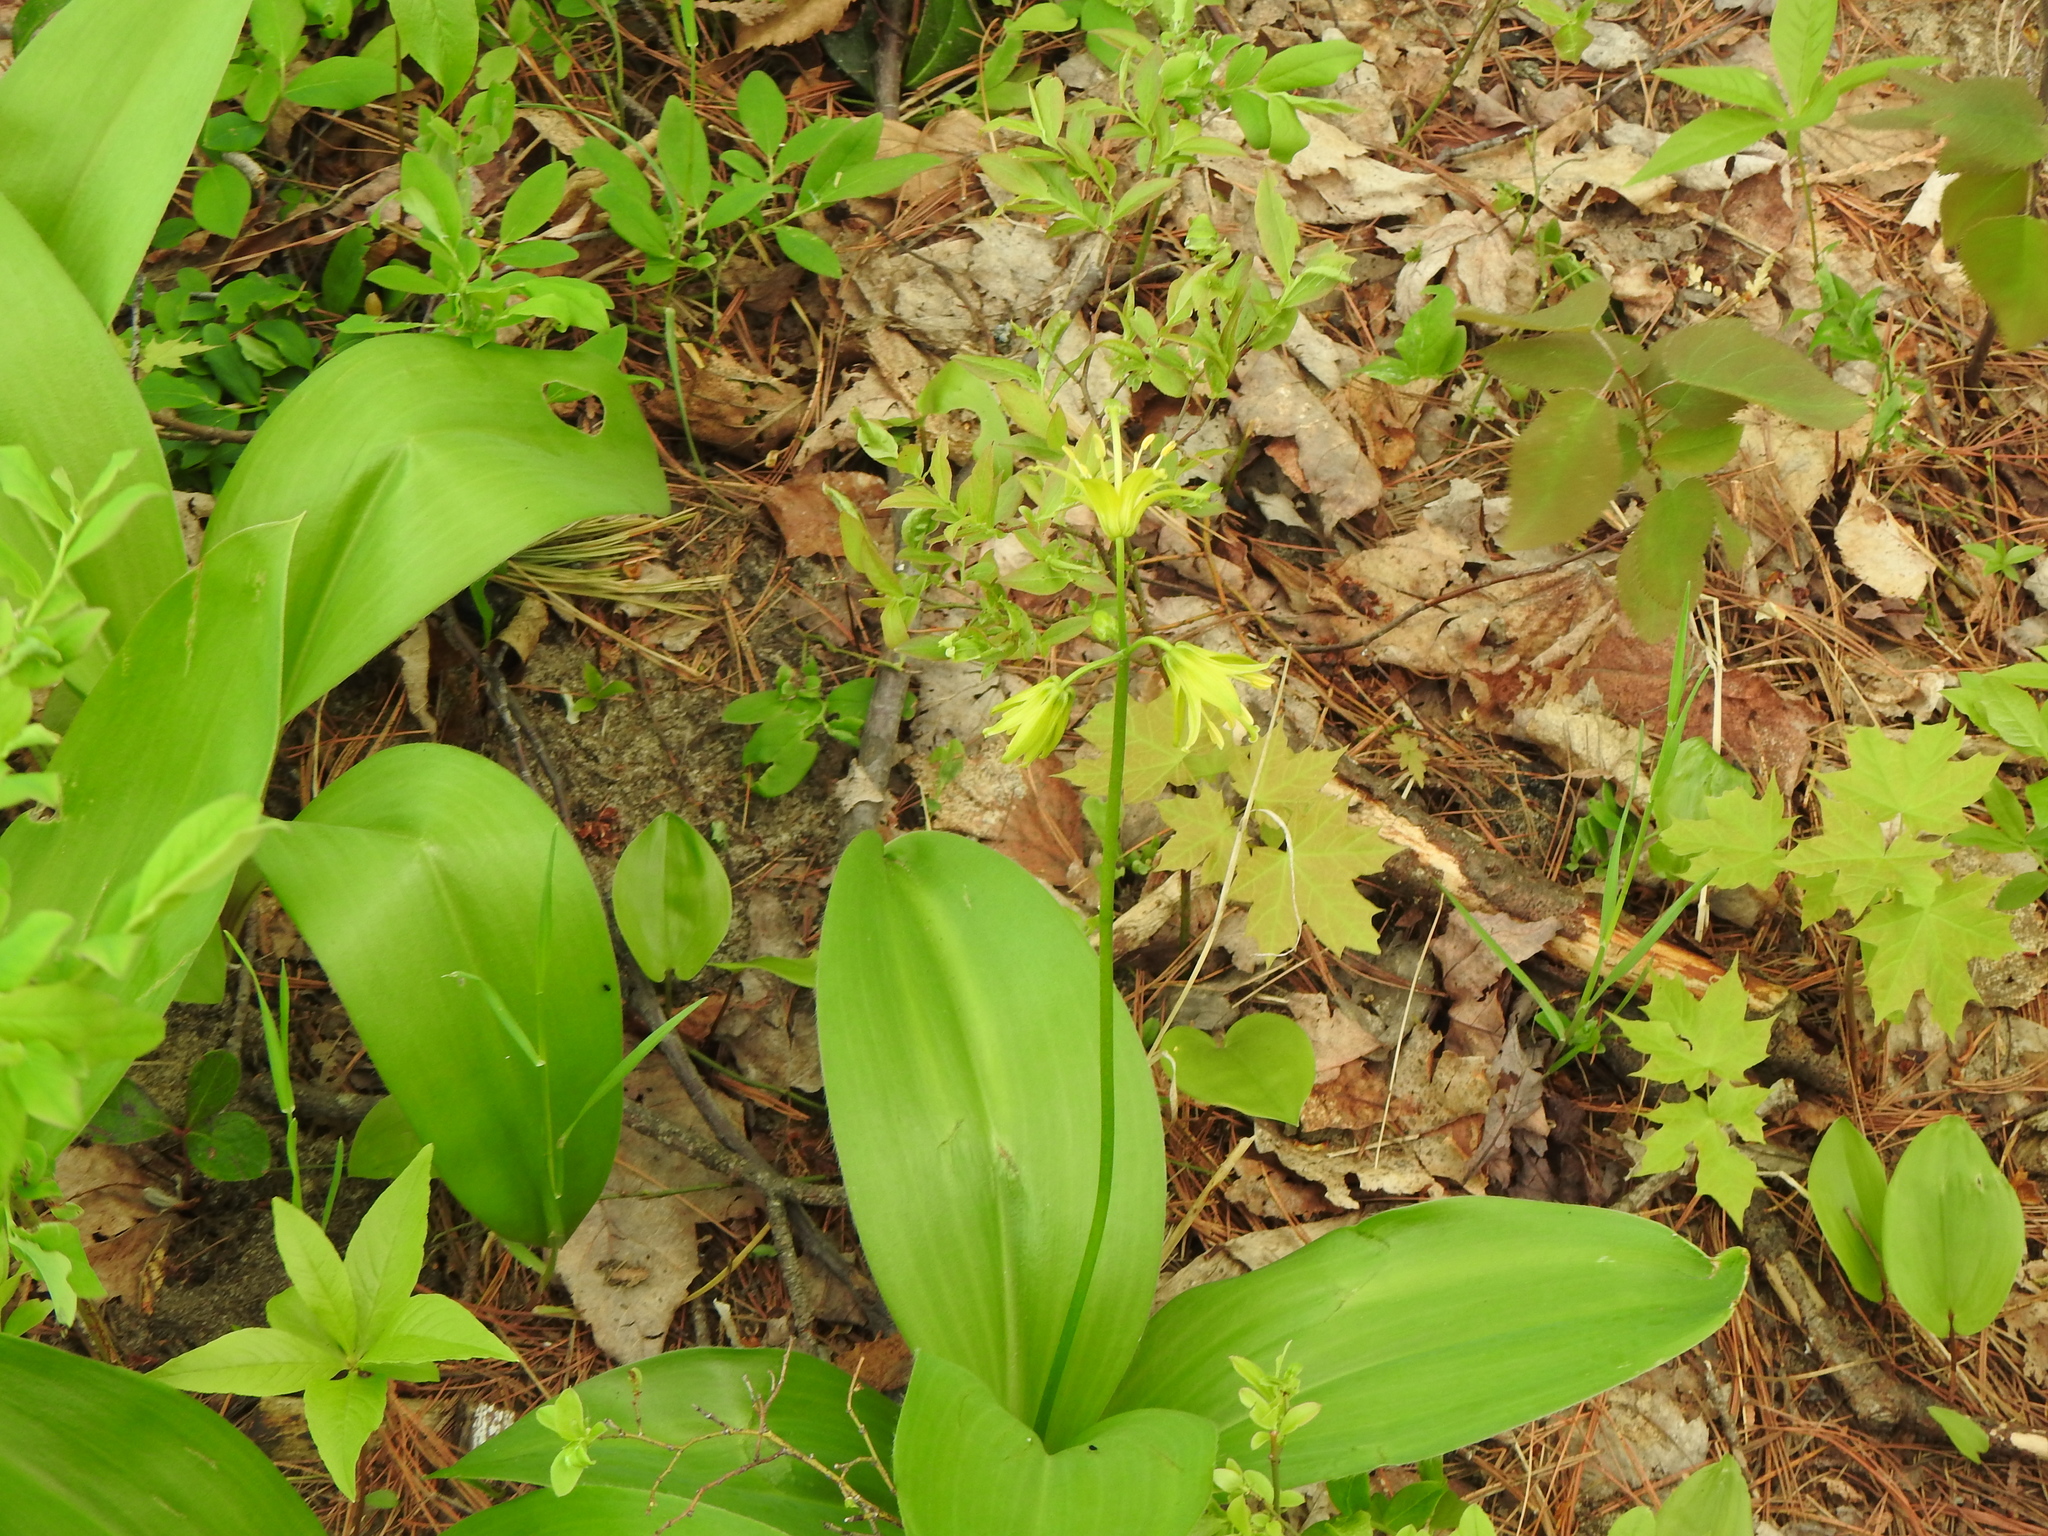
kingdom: Plantae
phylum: Tracheophyta
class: Liliopsida
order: Liliales
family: Liliaceae
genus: Clintonia
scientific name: Clintonia borealis
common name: Yellow clintonia
